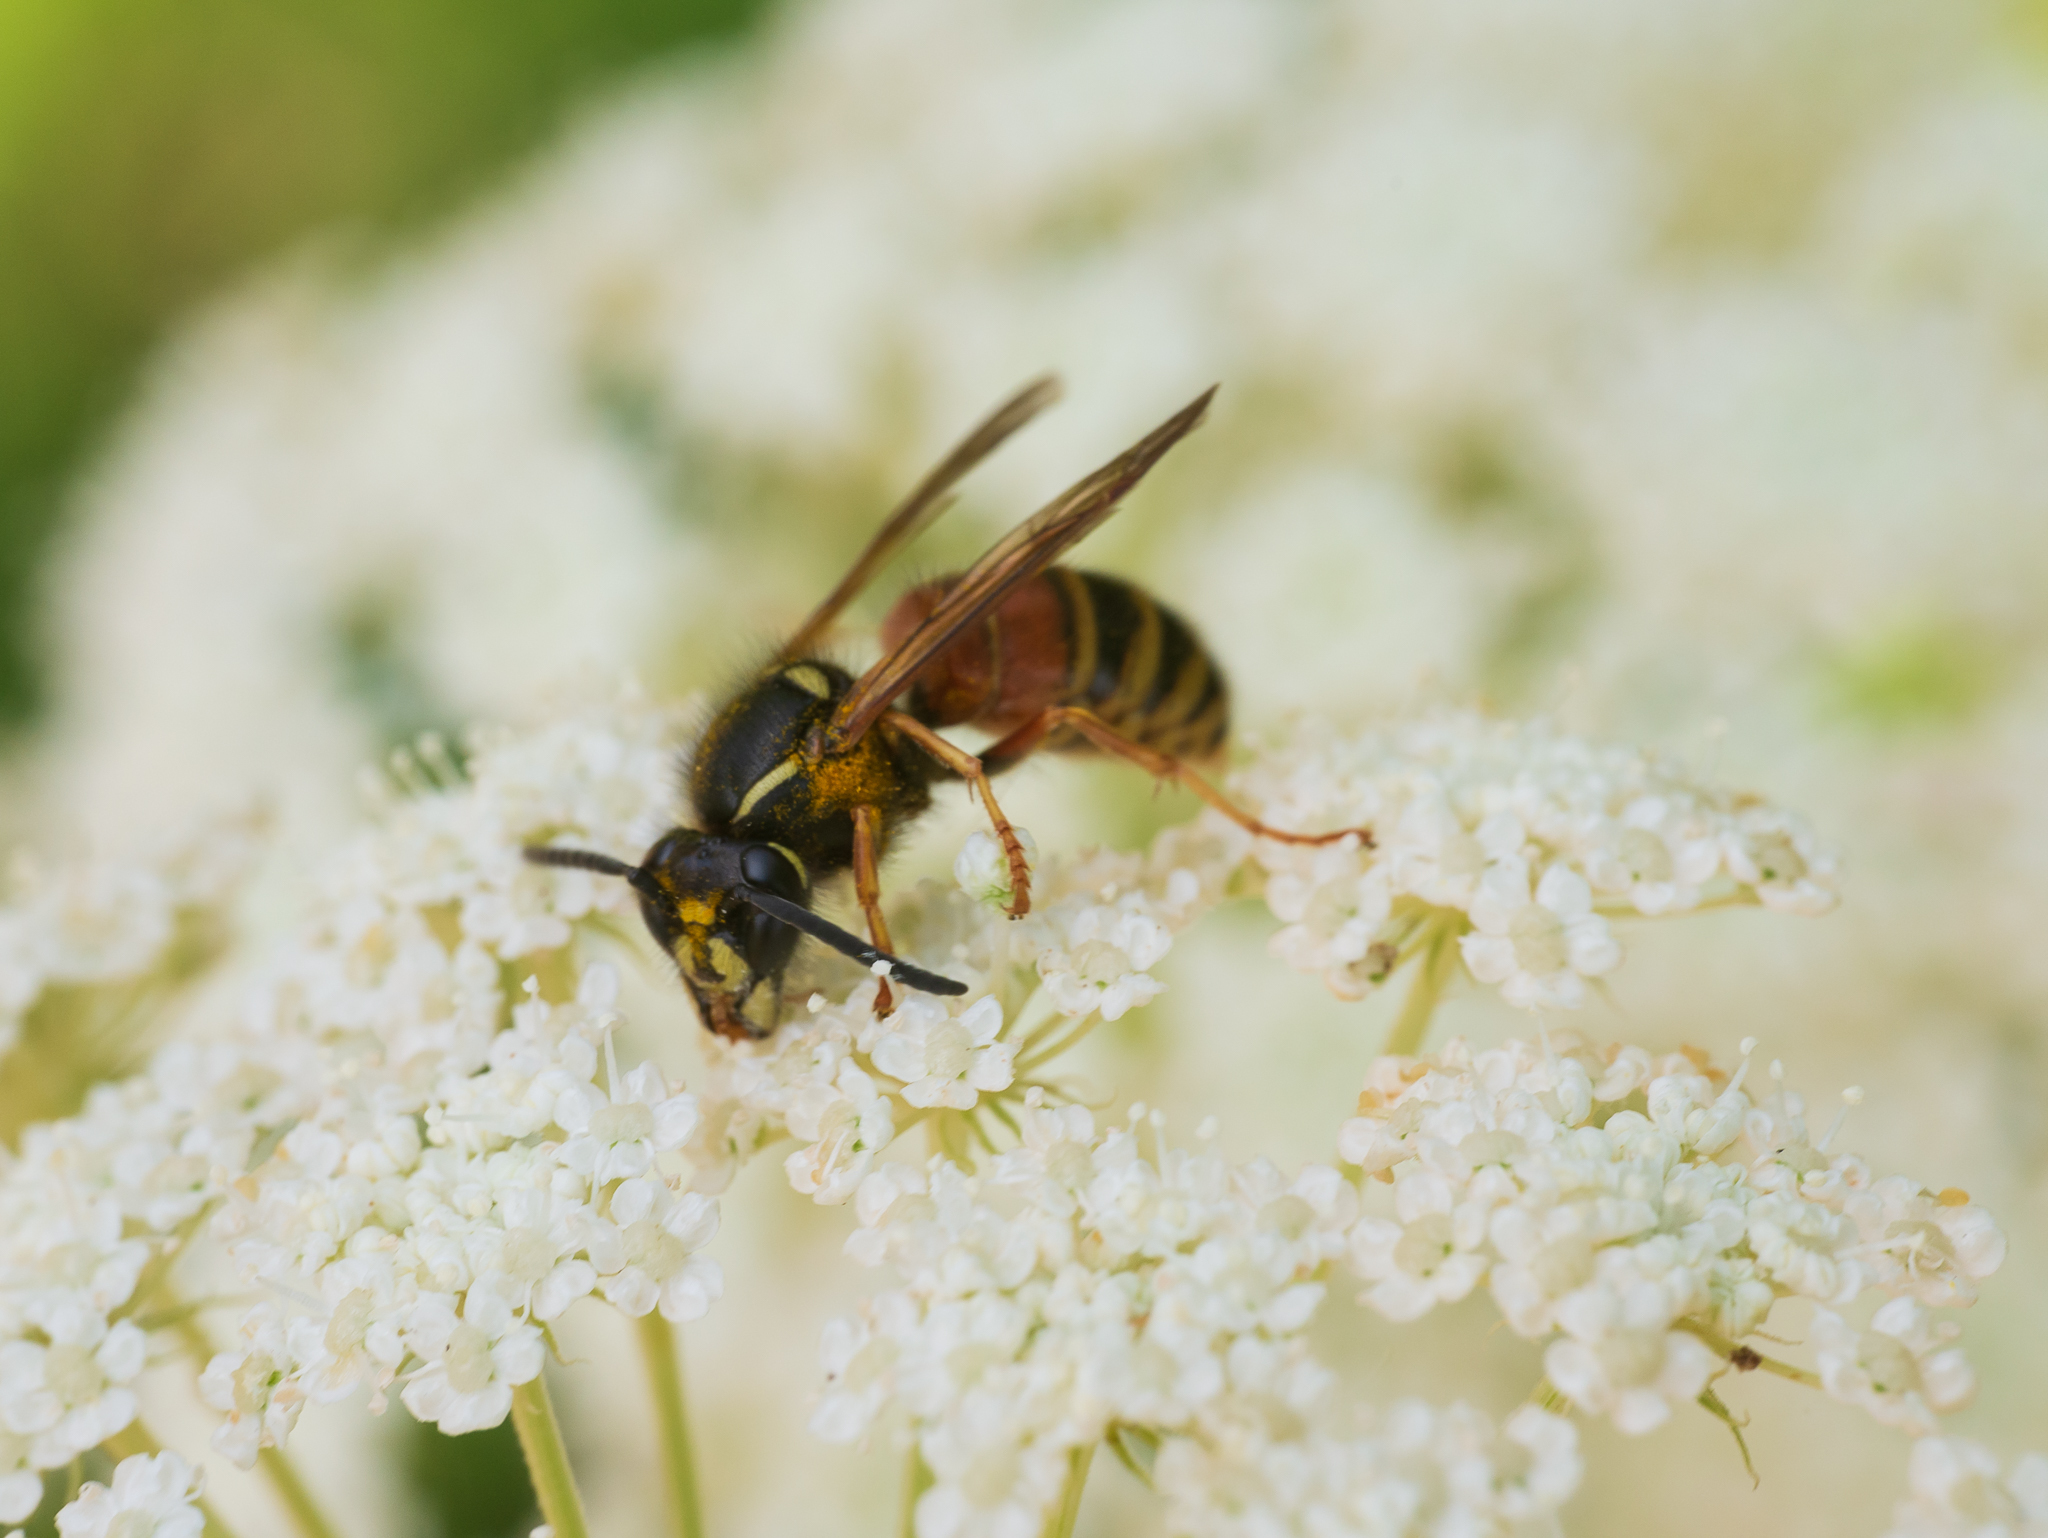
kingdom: Animalia
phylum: Arthropoda
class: Insecta
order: Hymenoptera
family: Vespidae
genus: Vespula
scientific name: Vespula rufa
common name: Red wasp
